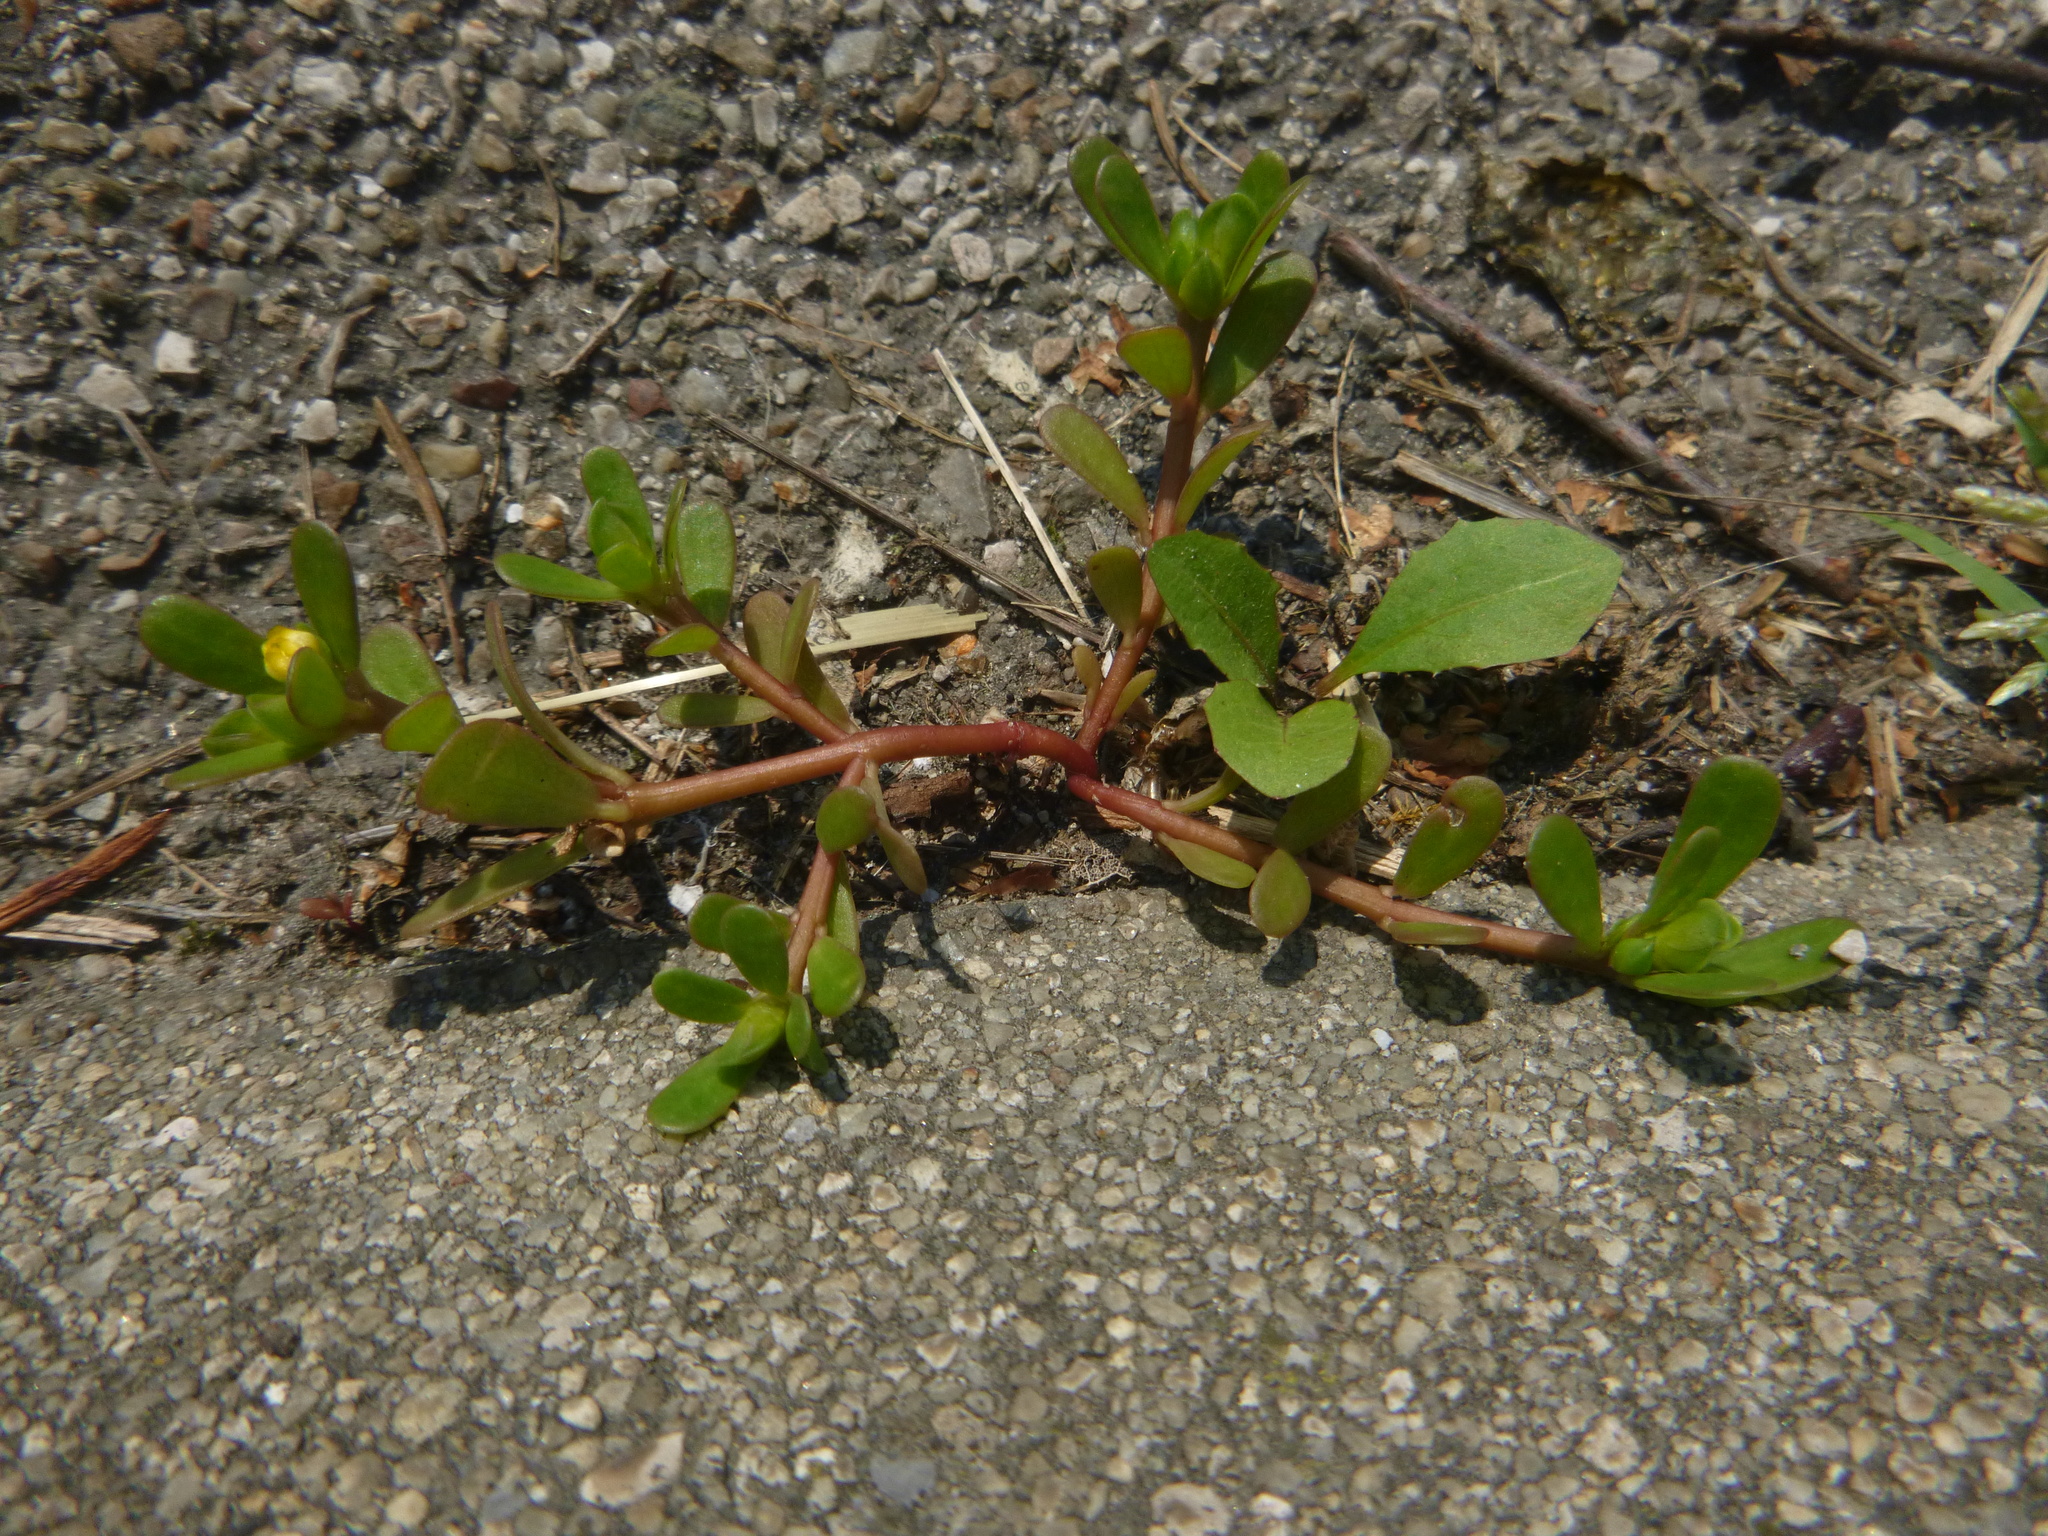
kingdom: Plantae
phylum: Tracheophyta
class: Magnoliopsida
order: Caryophyllales
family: Portulacaceae
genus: Portulaca
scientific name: Portulaca oleracea
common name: Common purslane
